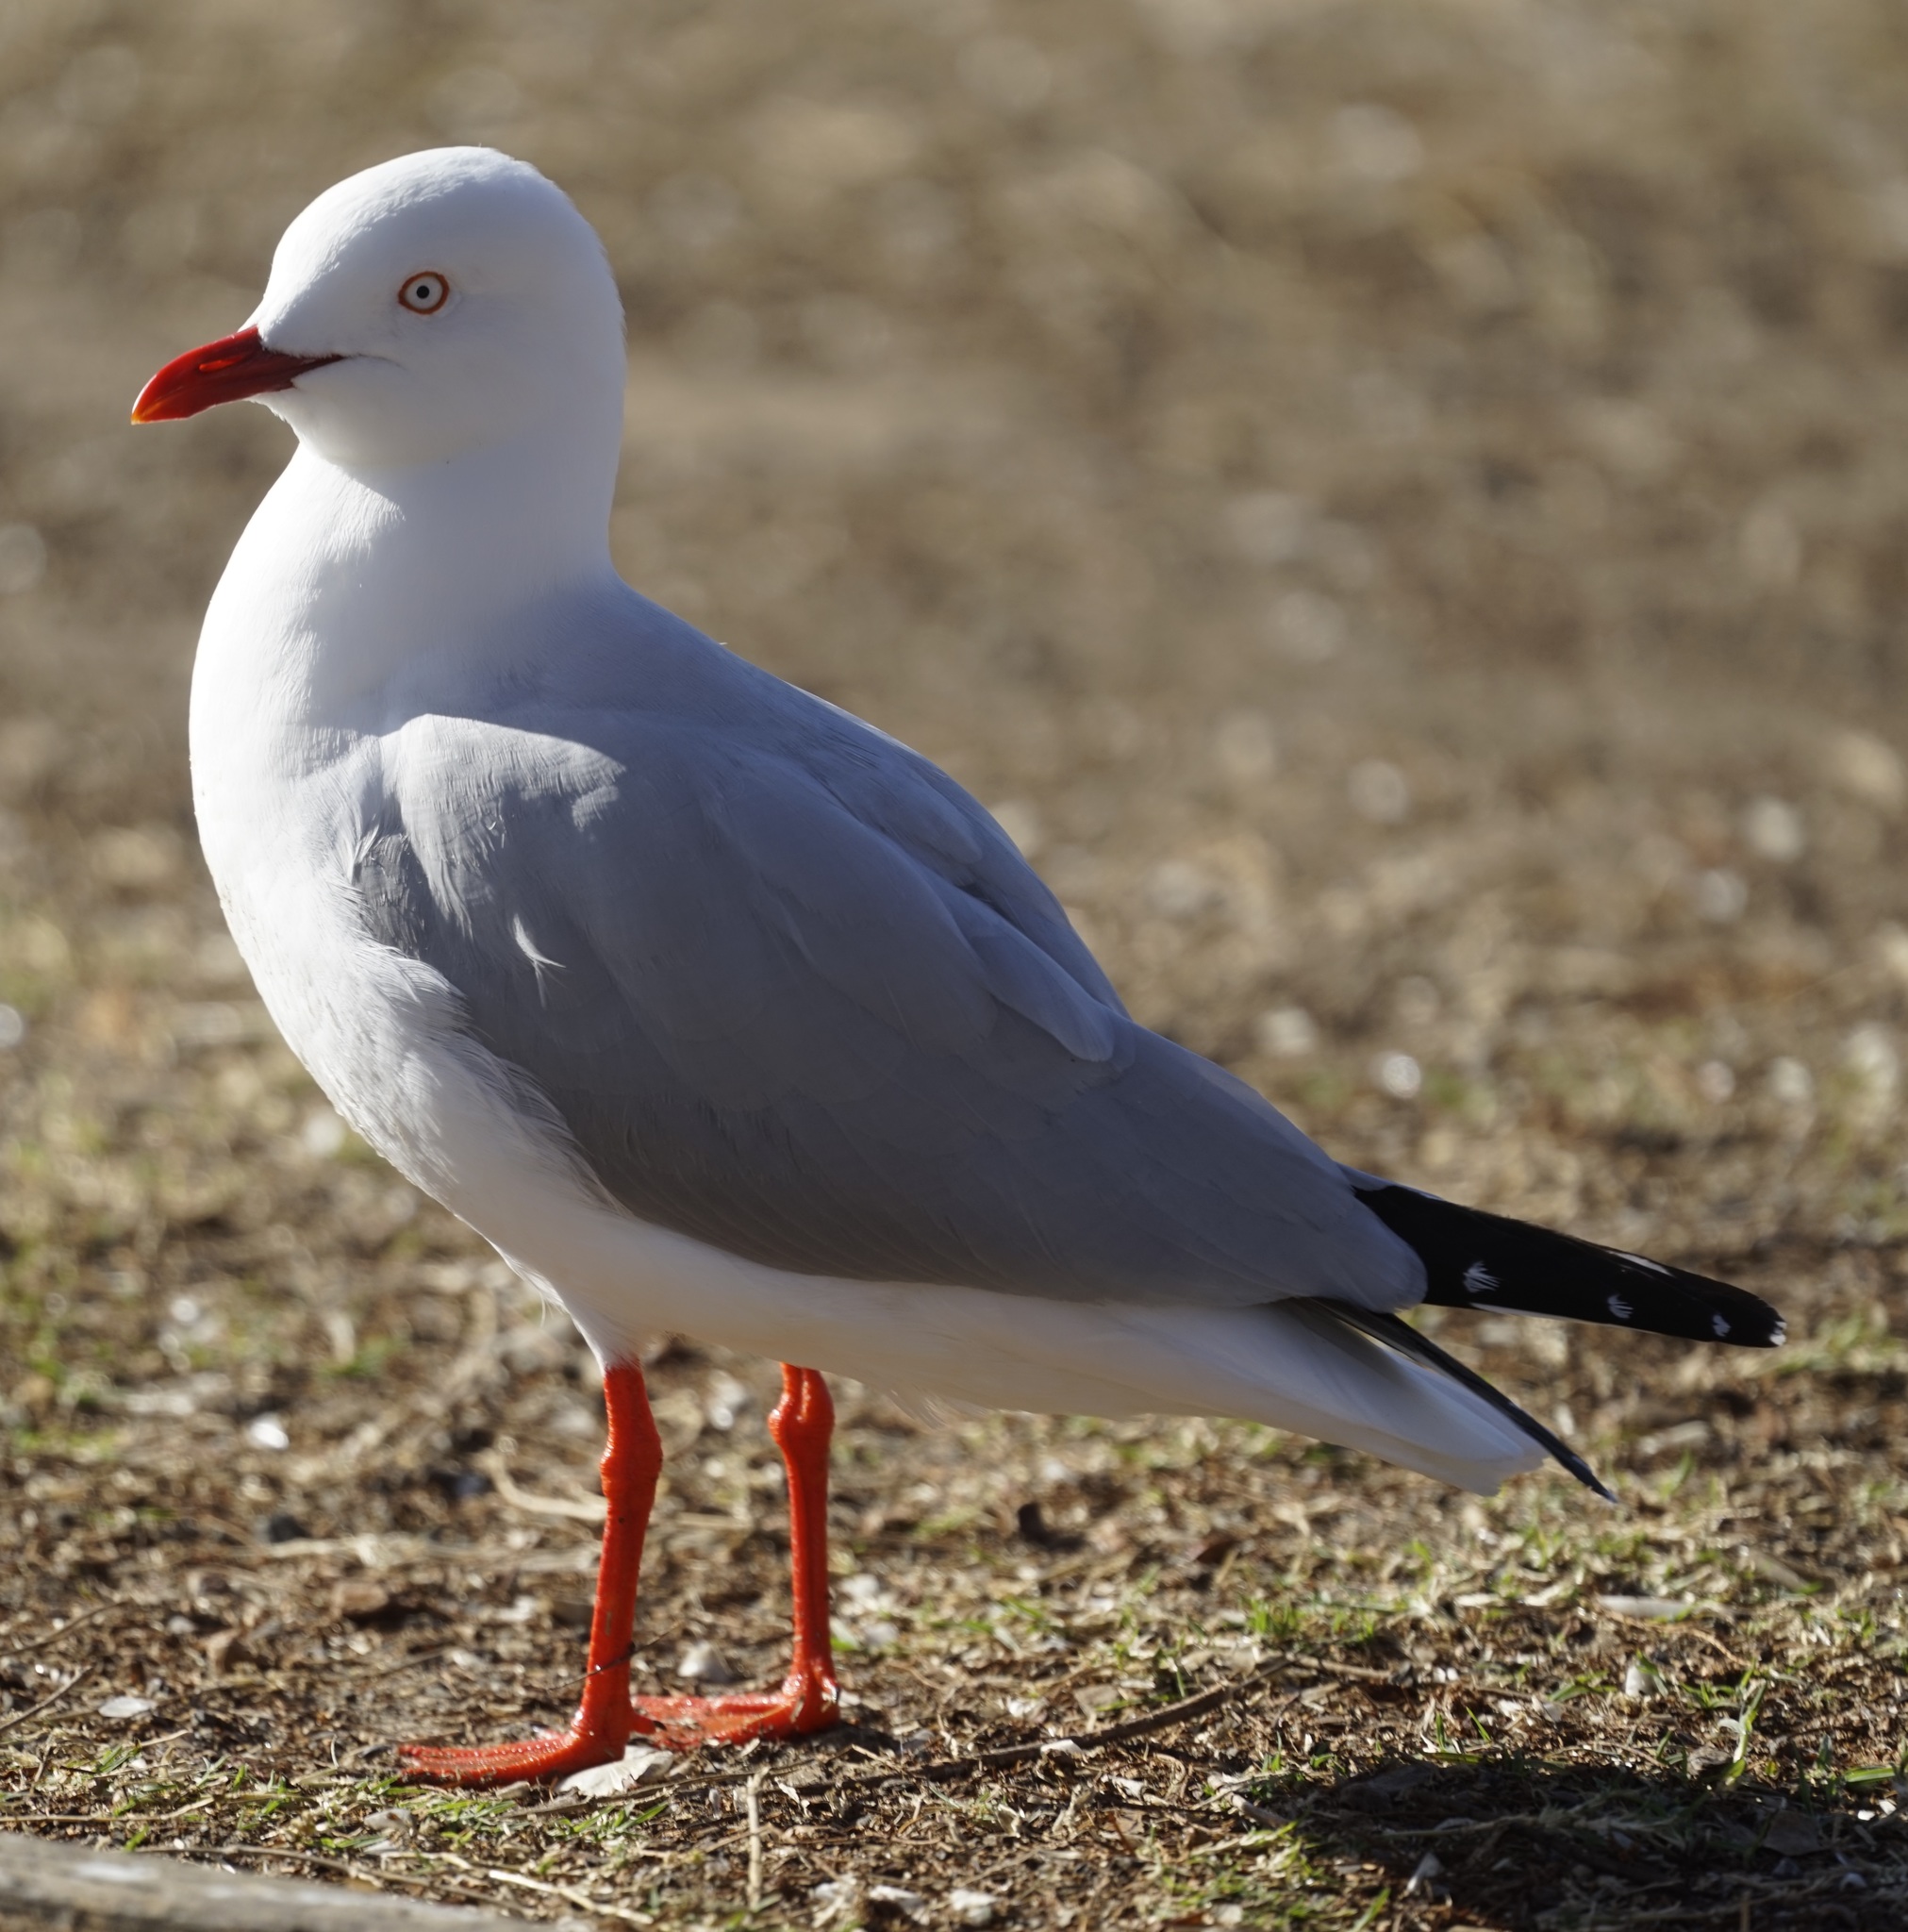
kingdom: Animalia
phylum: Chordata
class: Aves
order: Charadriiformes
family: Laridae
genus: Chroicocephalus
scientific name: Chroicocephalus novaehollandiae
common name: Silver gull
